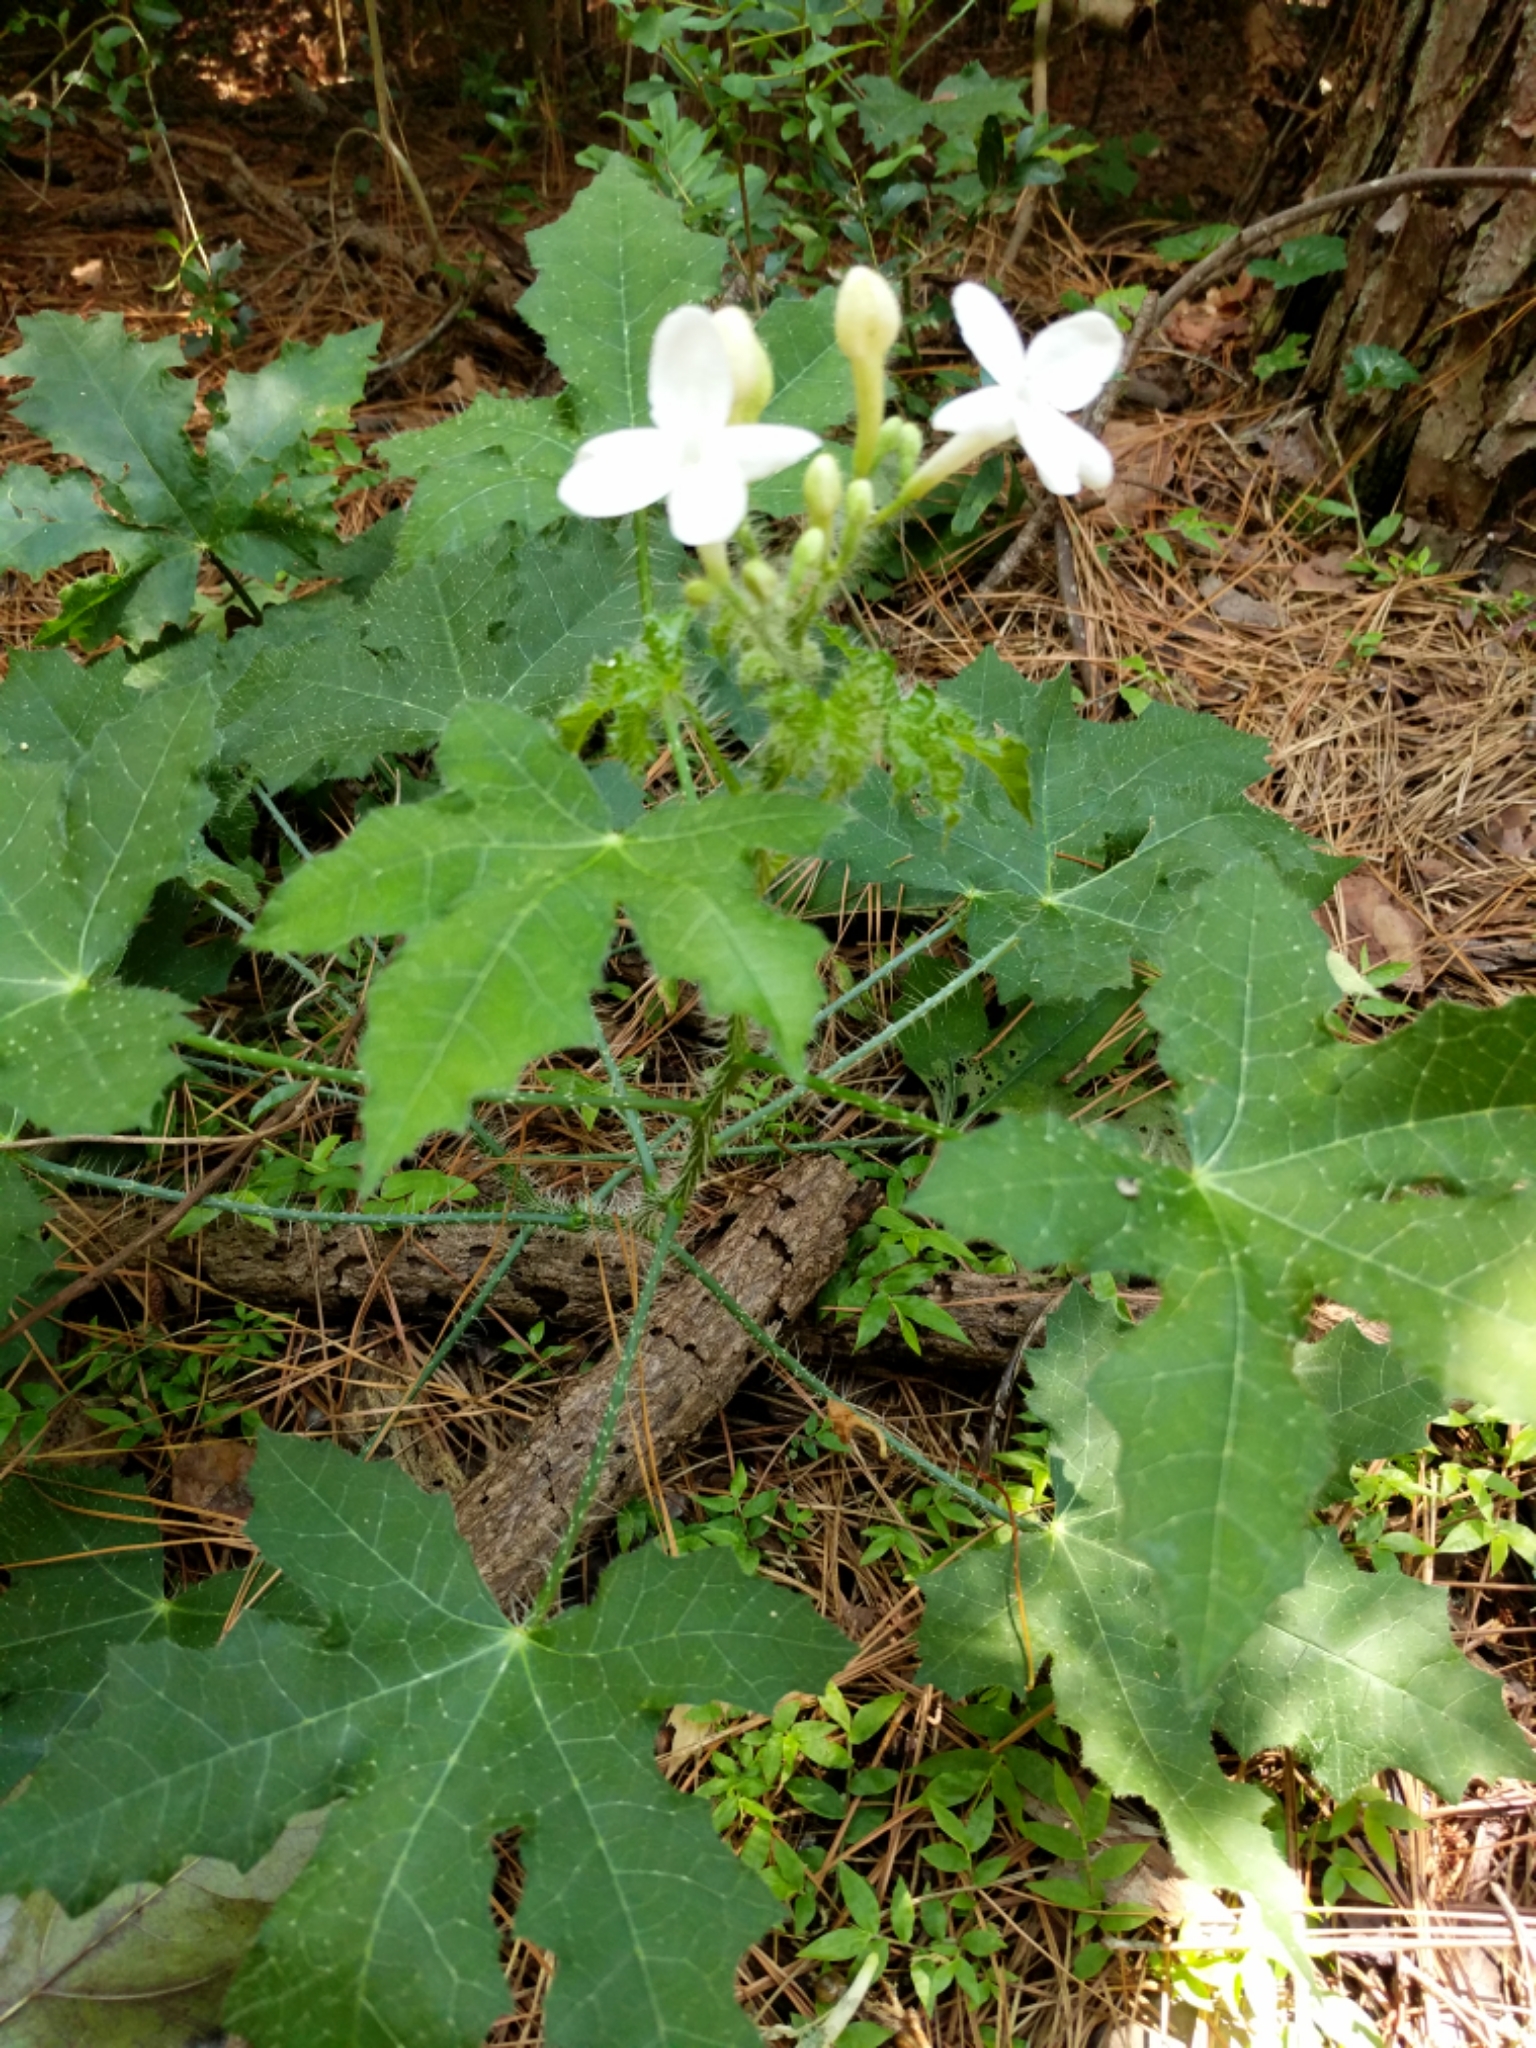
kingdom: Plantae
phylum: Tracheophyta
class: Magnoliopsida
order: Malpighiales
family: Euphorbiaceae
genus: Cnidoscolus
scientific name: Cnidoscolus texanus
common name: Texas bull-nettle
